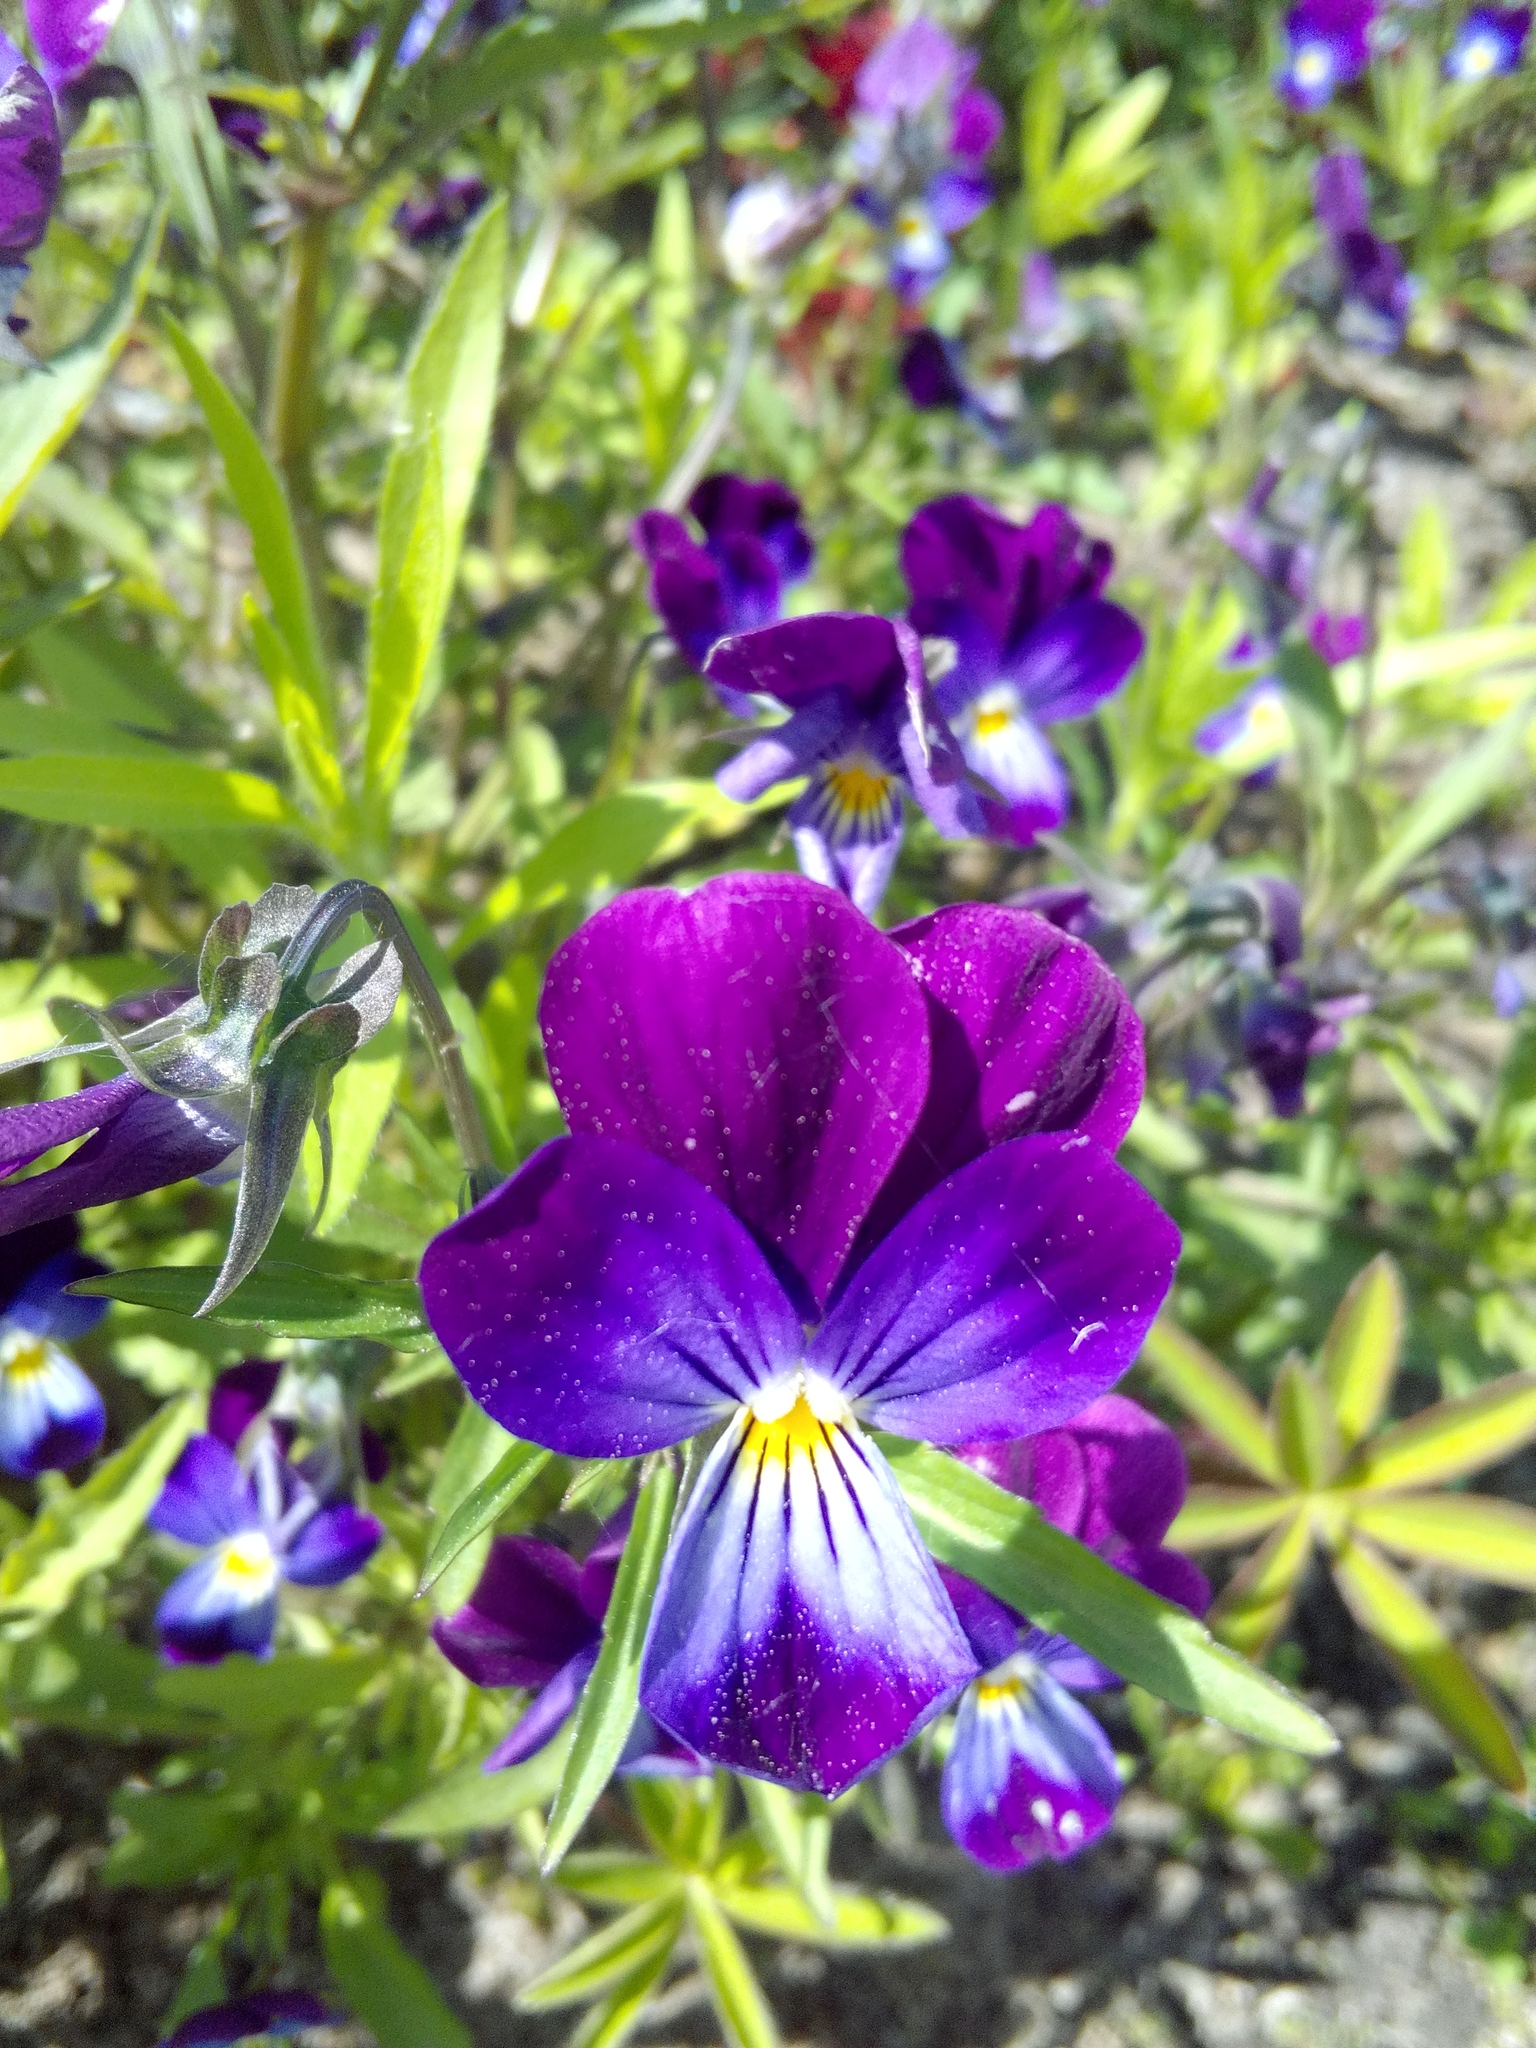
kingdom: Plantae
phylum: Tracheophyta
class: Magnoliopsida
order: Malpighiales
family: Violaceae
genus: Viola
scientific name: Viola wittrockiana
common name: Garden pansy
